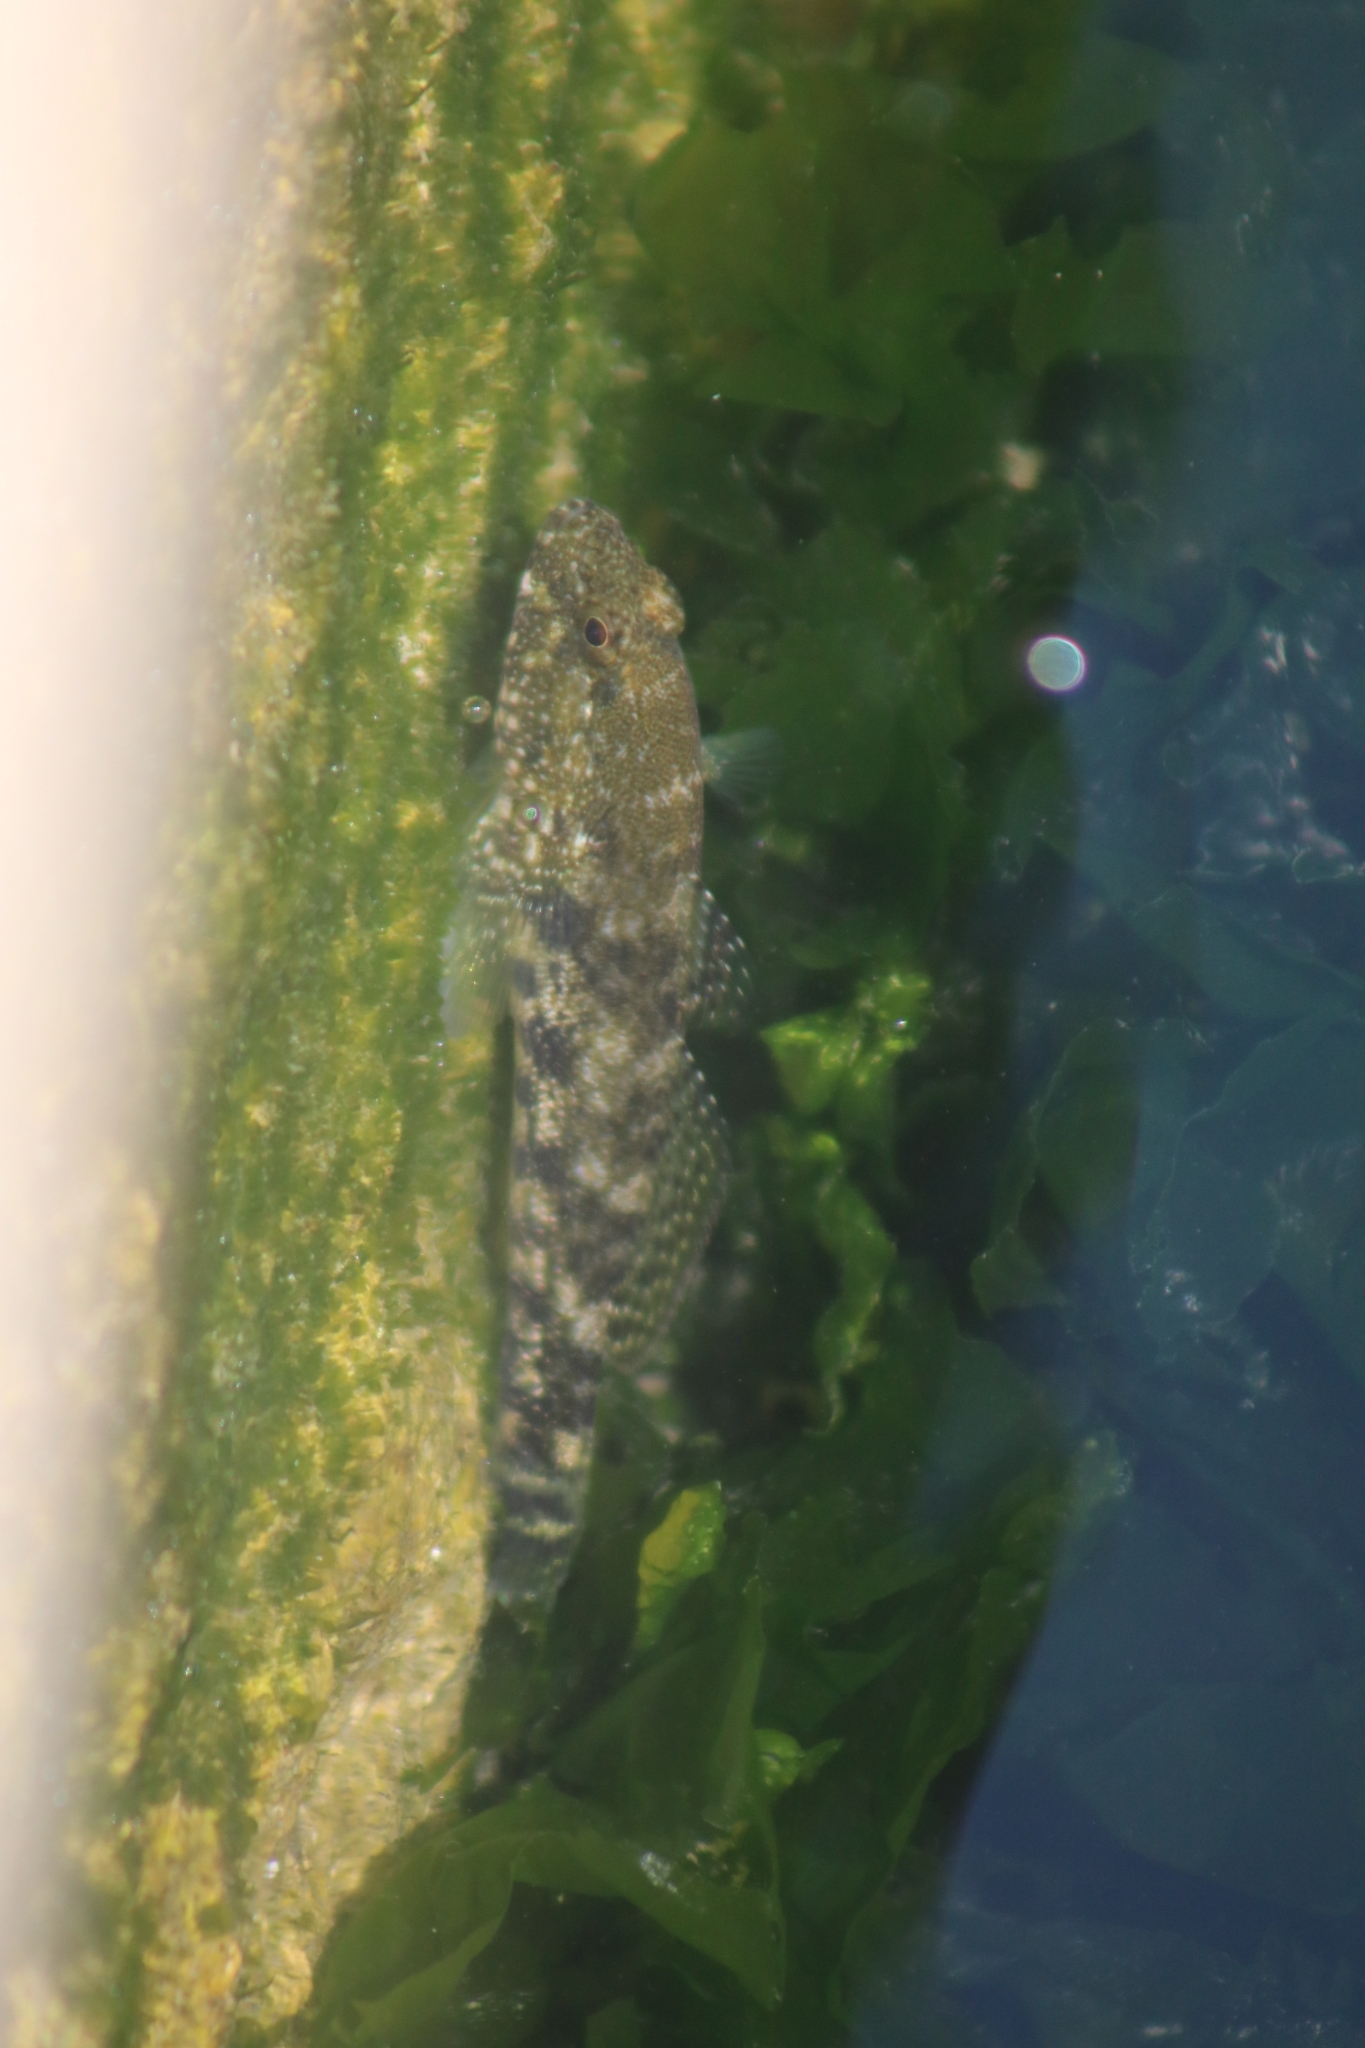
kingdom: Animalia
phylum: Chordata
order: Perciformes
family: Gobiidae
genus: Gobius
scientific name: Gobius cobitis
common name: Giant goby
